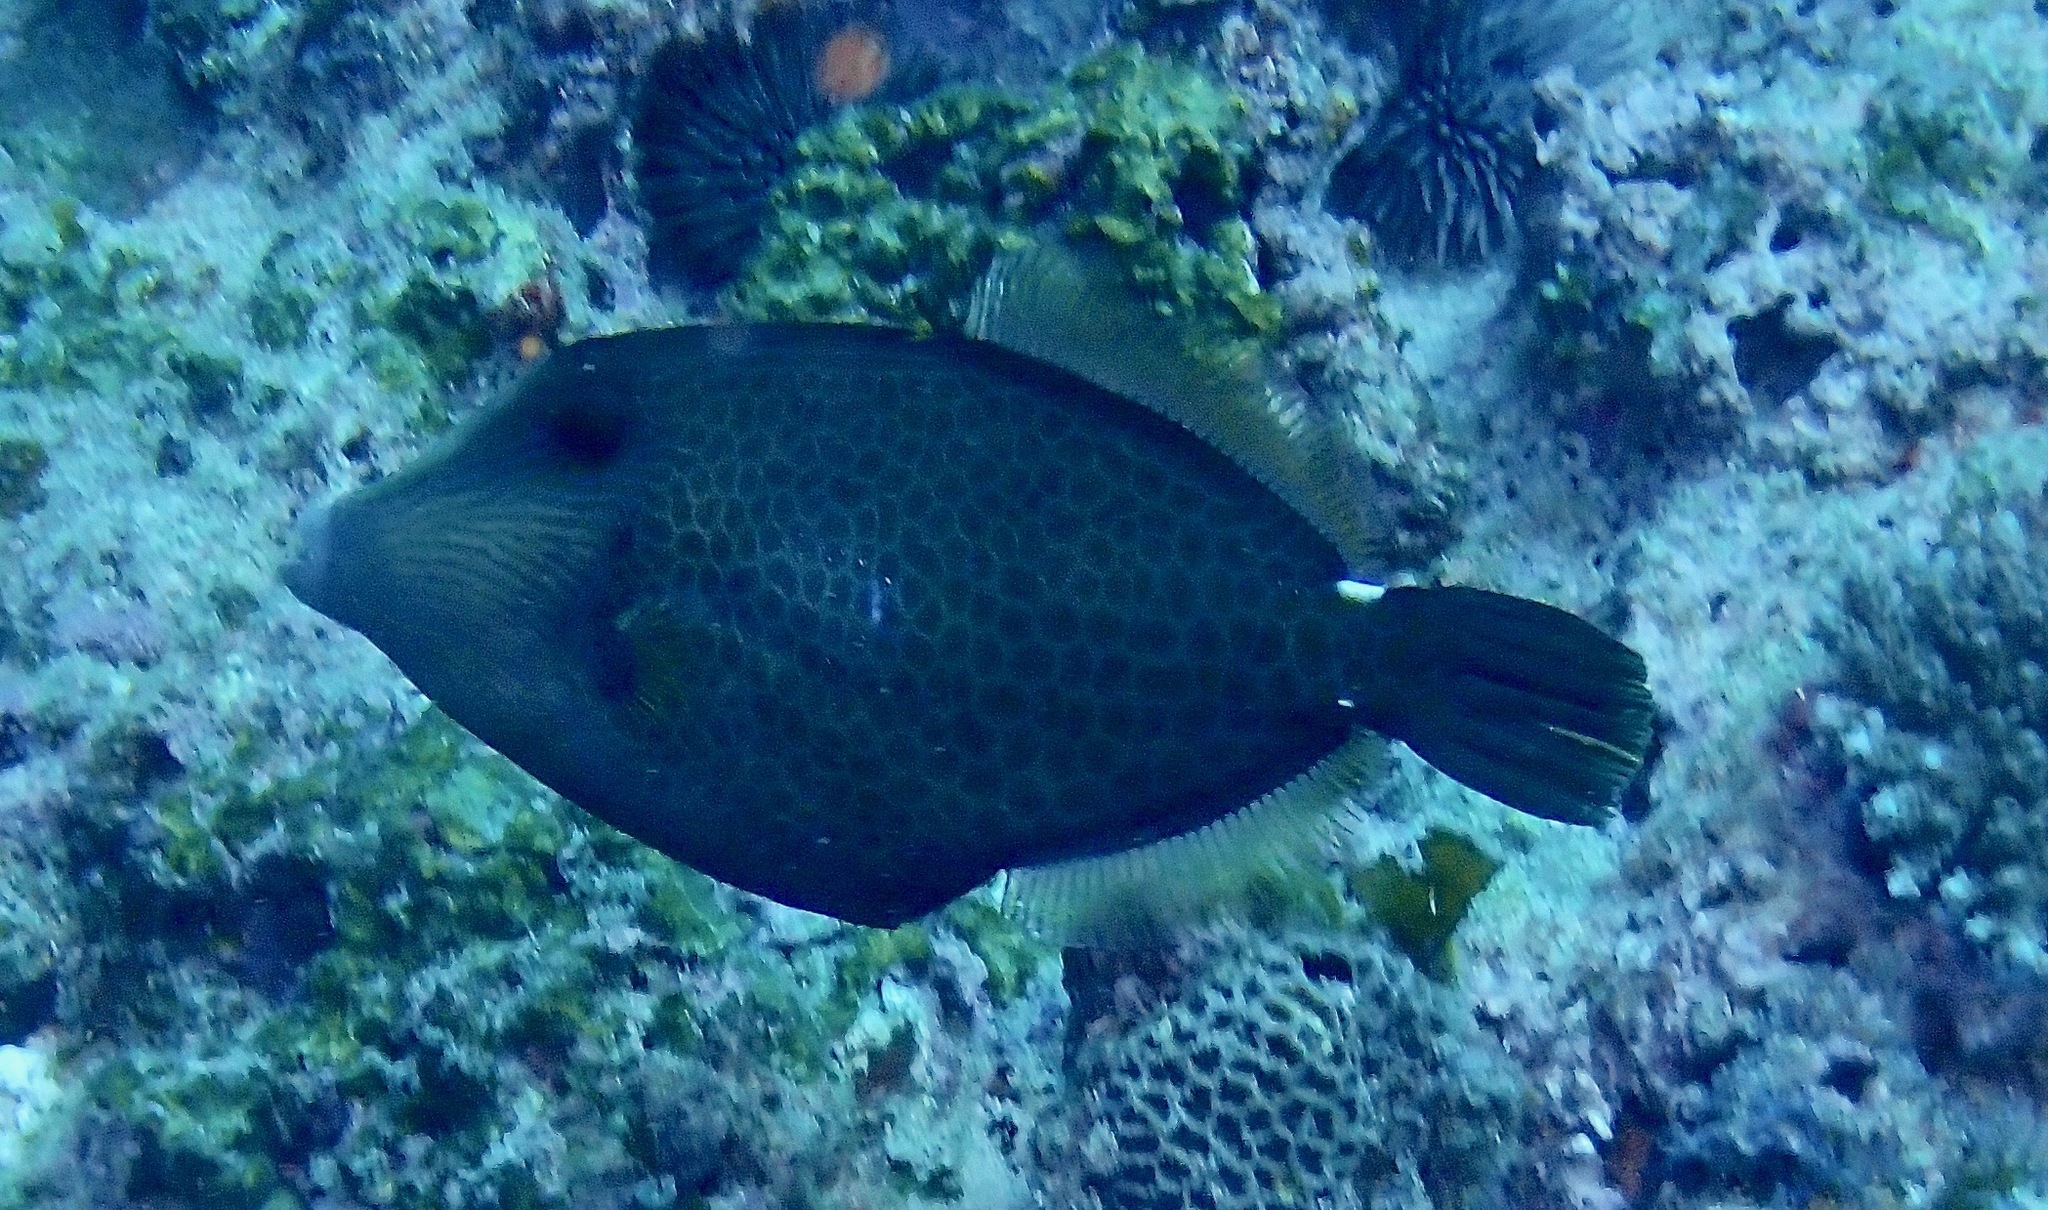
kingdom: Animalia
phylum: Chordata
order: Tetraodontiformes
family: Monacanthidae
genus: Cantherhines
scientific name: Cantherhines pardalis
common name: Honeycomb filefish
